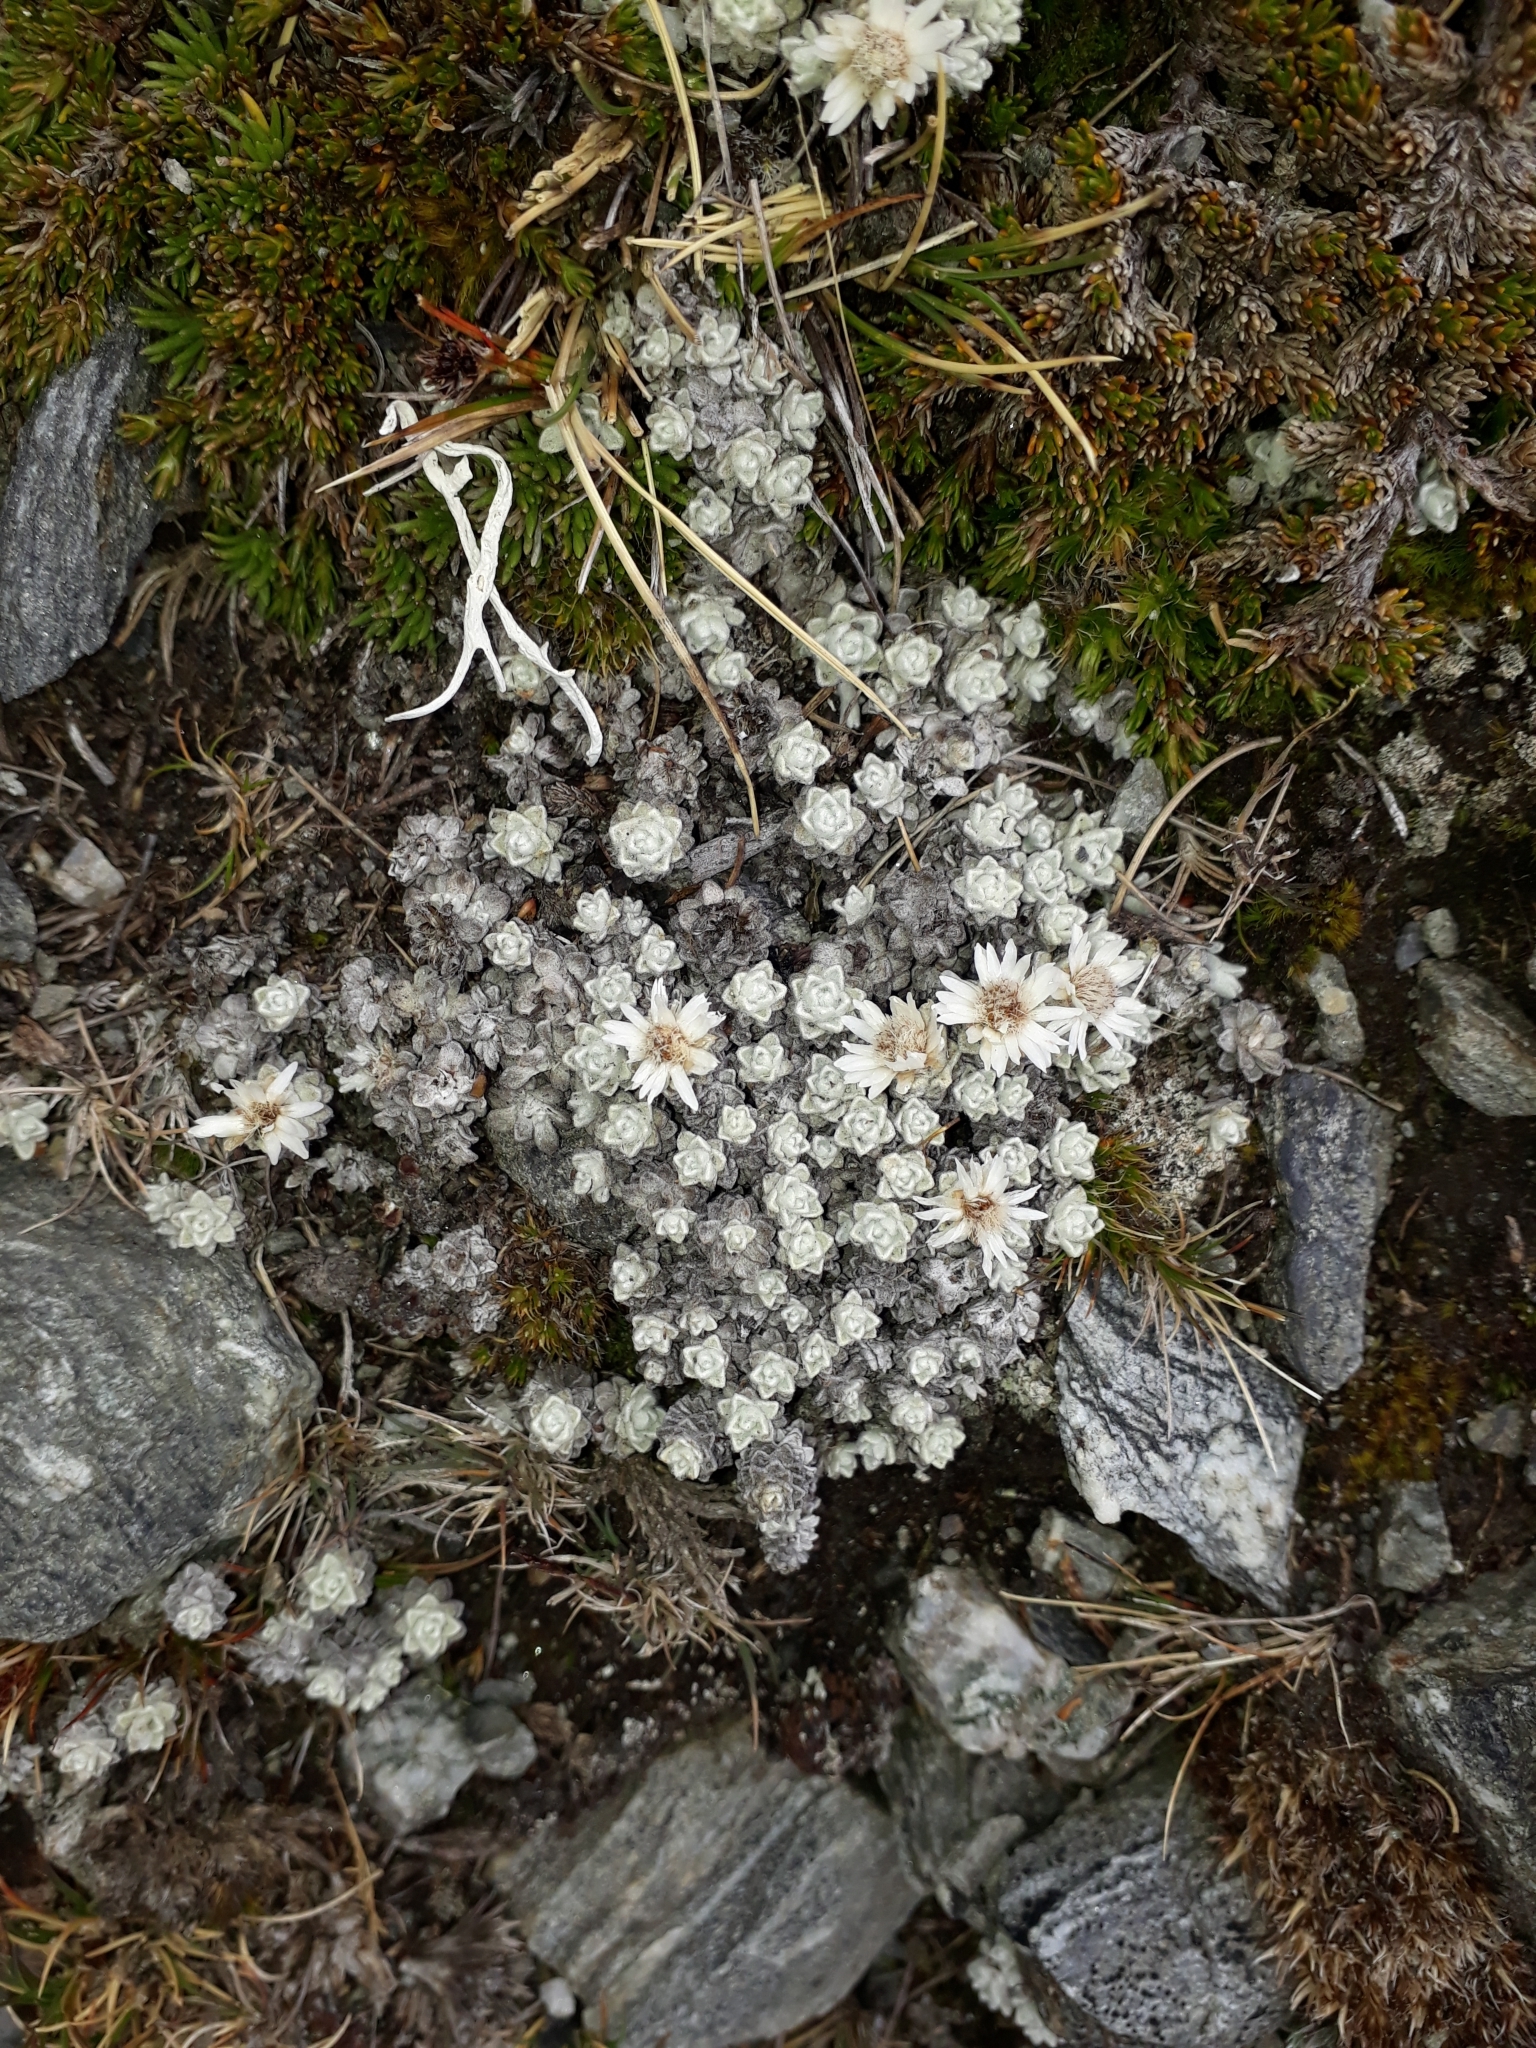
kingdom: Plantae
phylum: Tracheophyta
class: Magnoliopsida
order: Asterales
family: Asteraceae
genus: Raoulia
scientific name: Raoulia youngii
